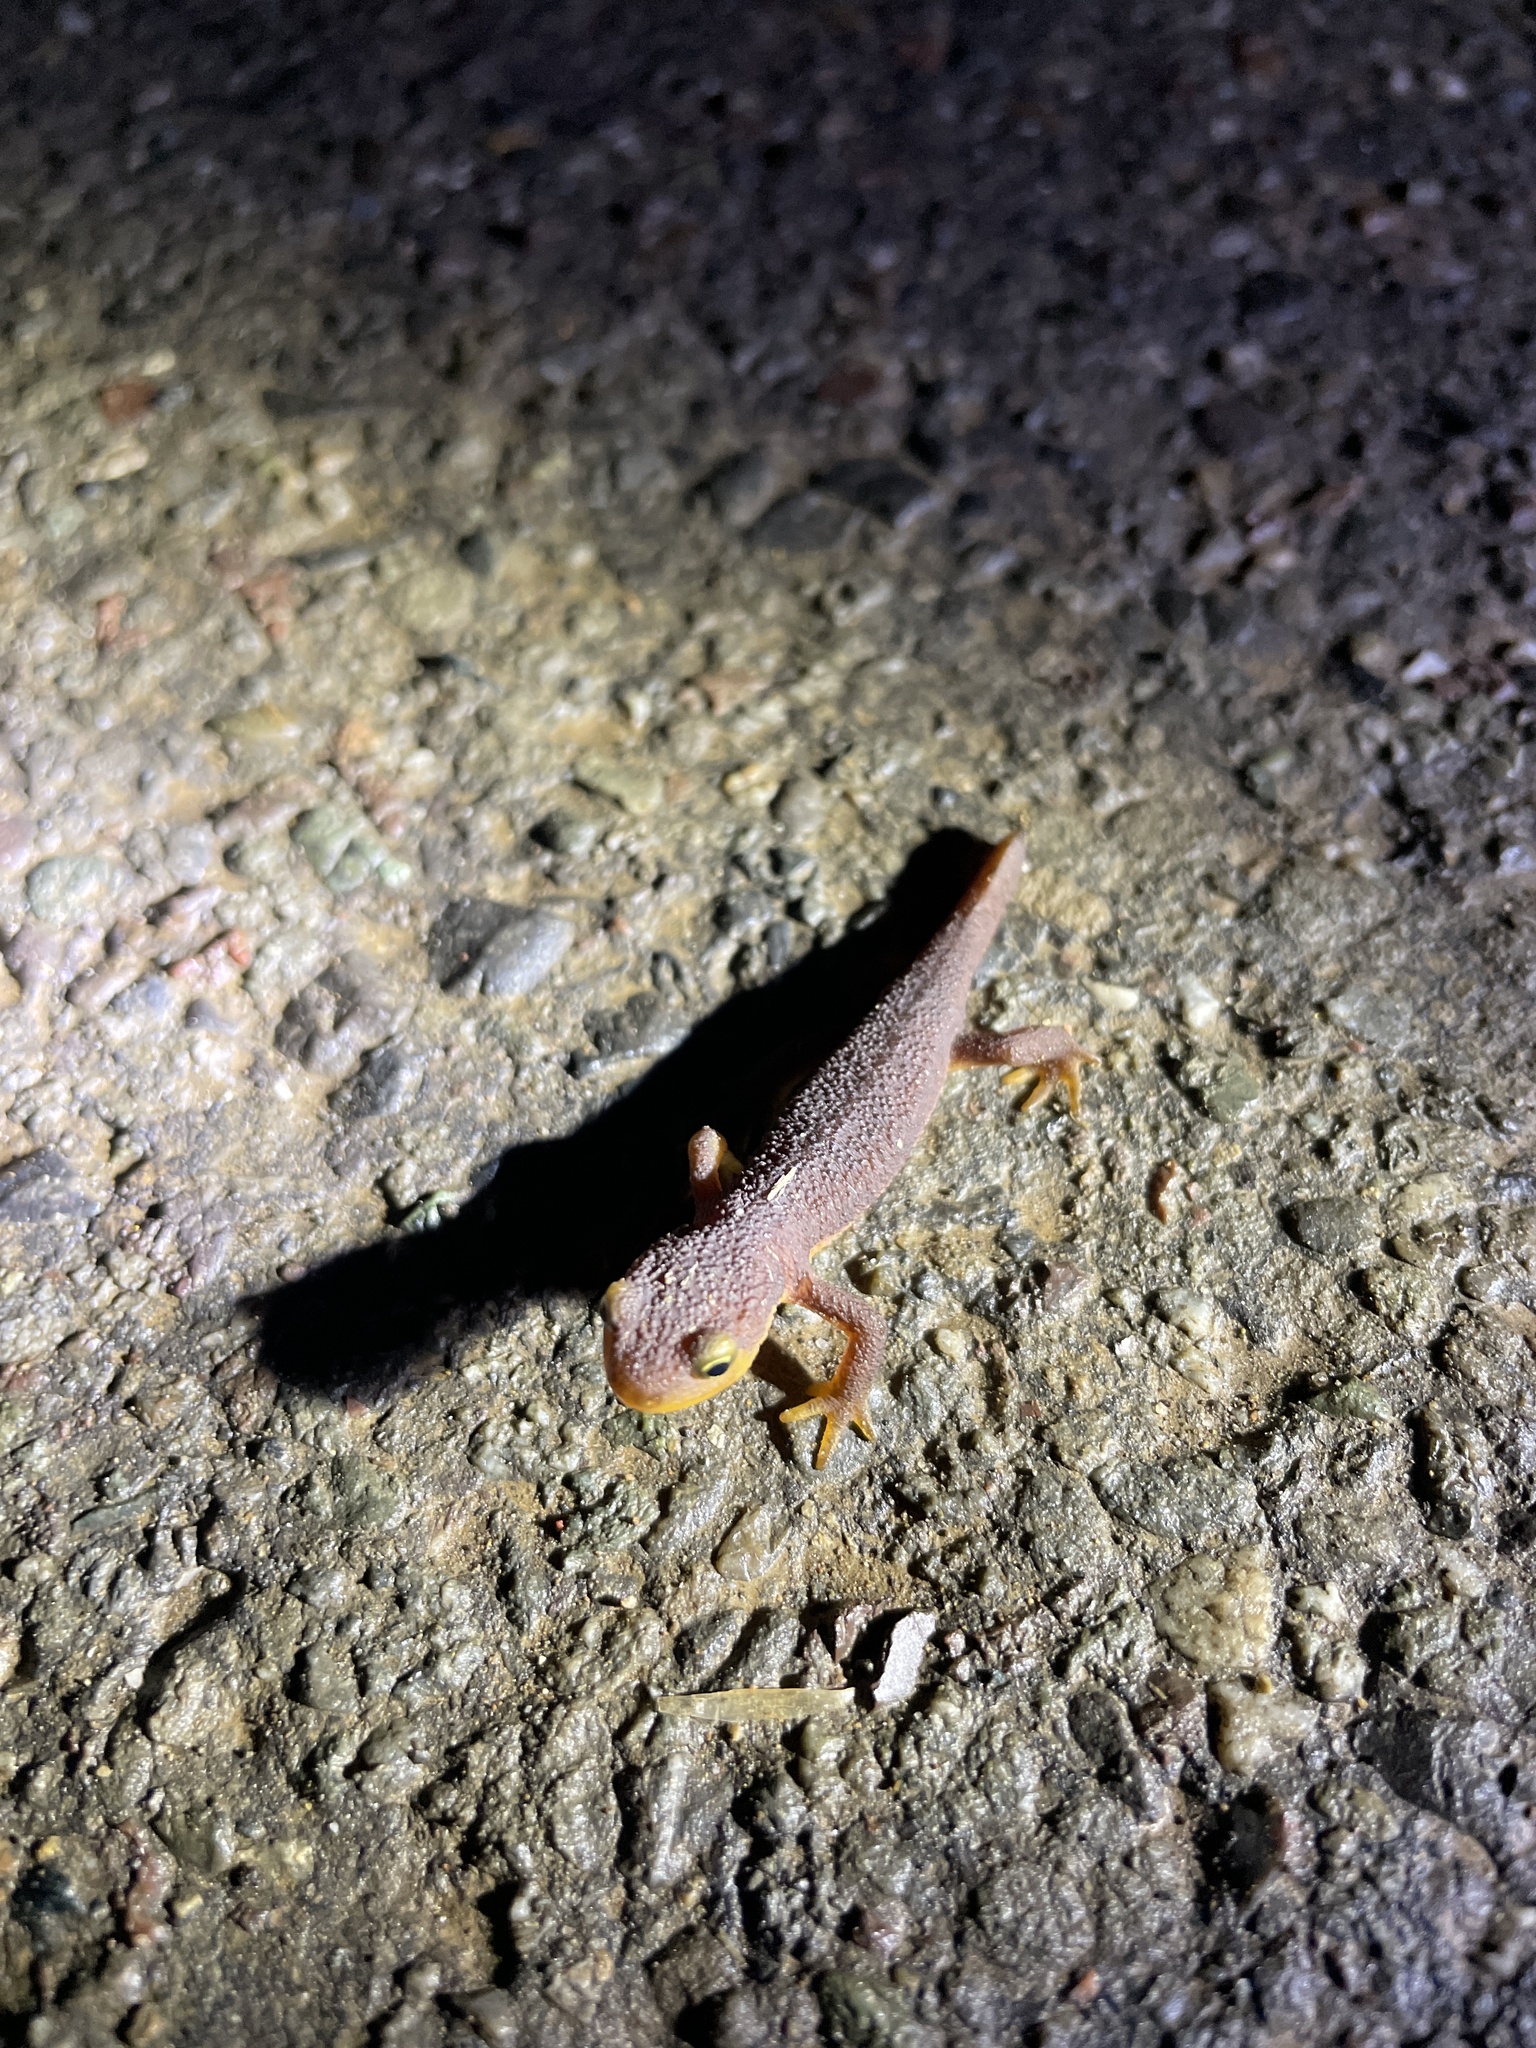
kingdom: Animalia
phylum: Chordata
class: Amphibia
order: Caudata
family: Salamandridae
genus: Taricha
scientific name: Taricha torosa
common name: California newt
